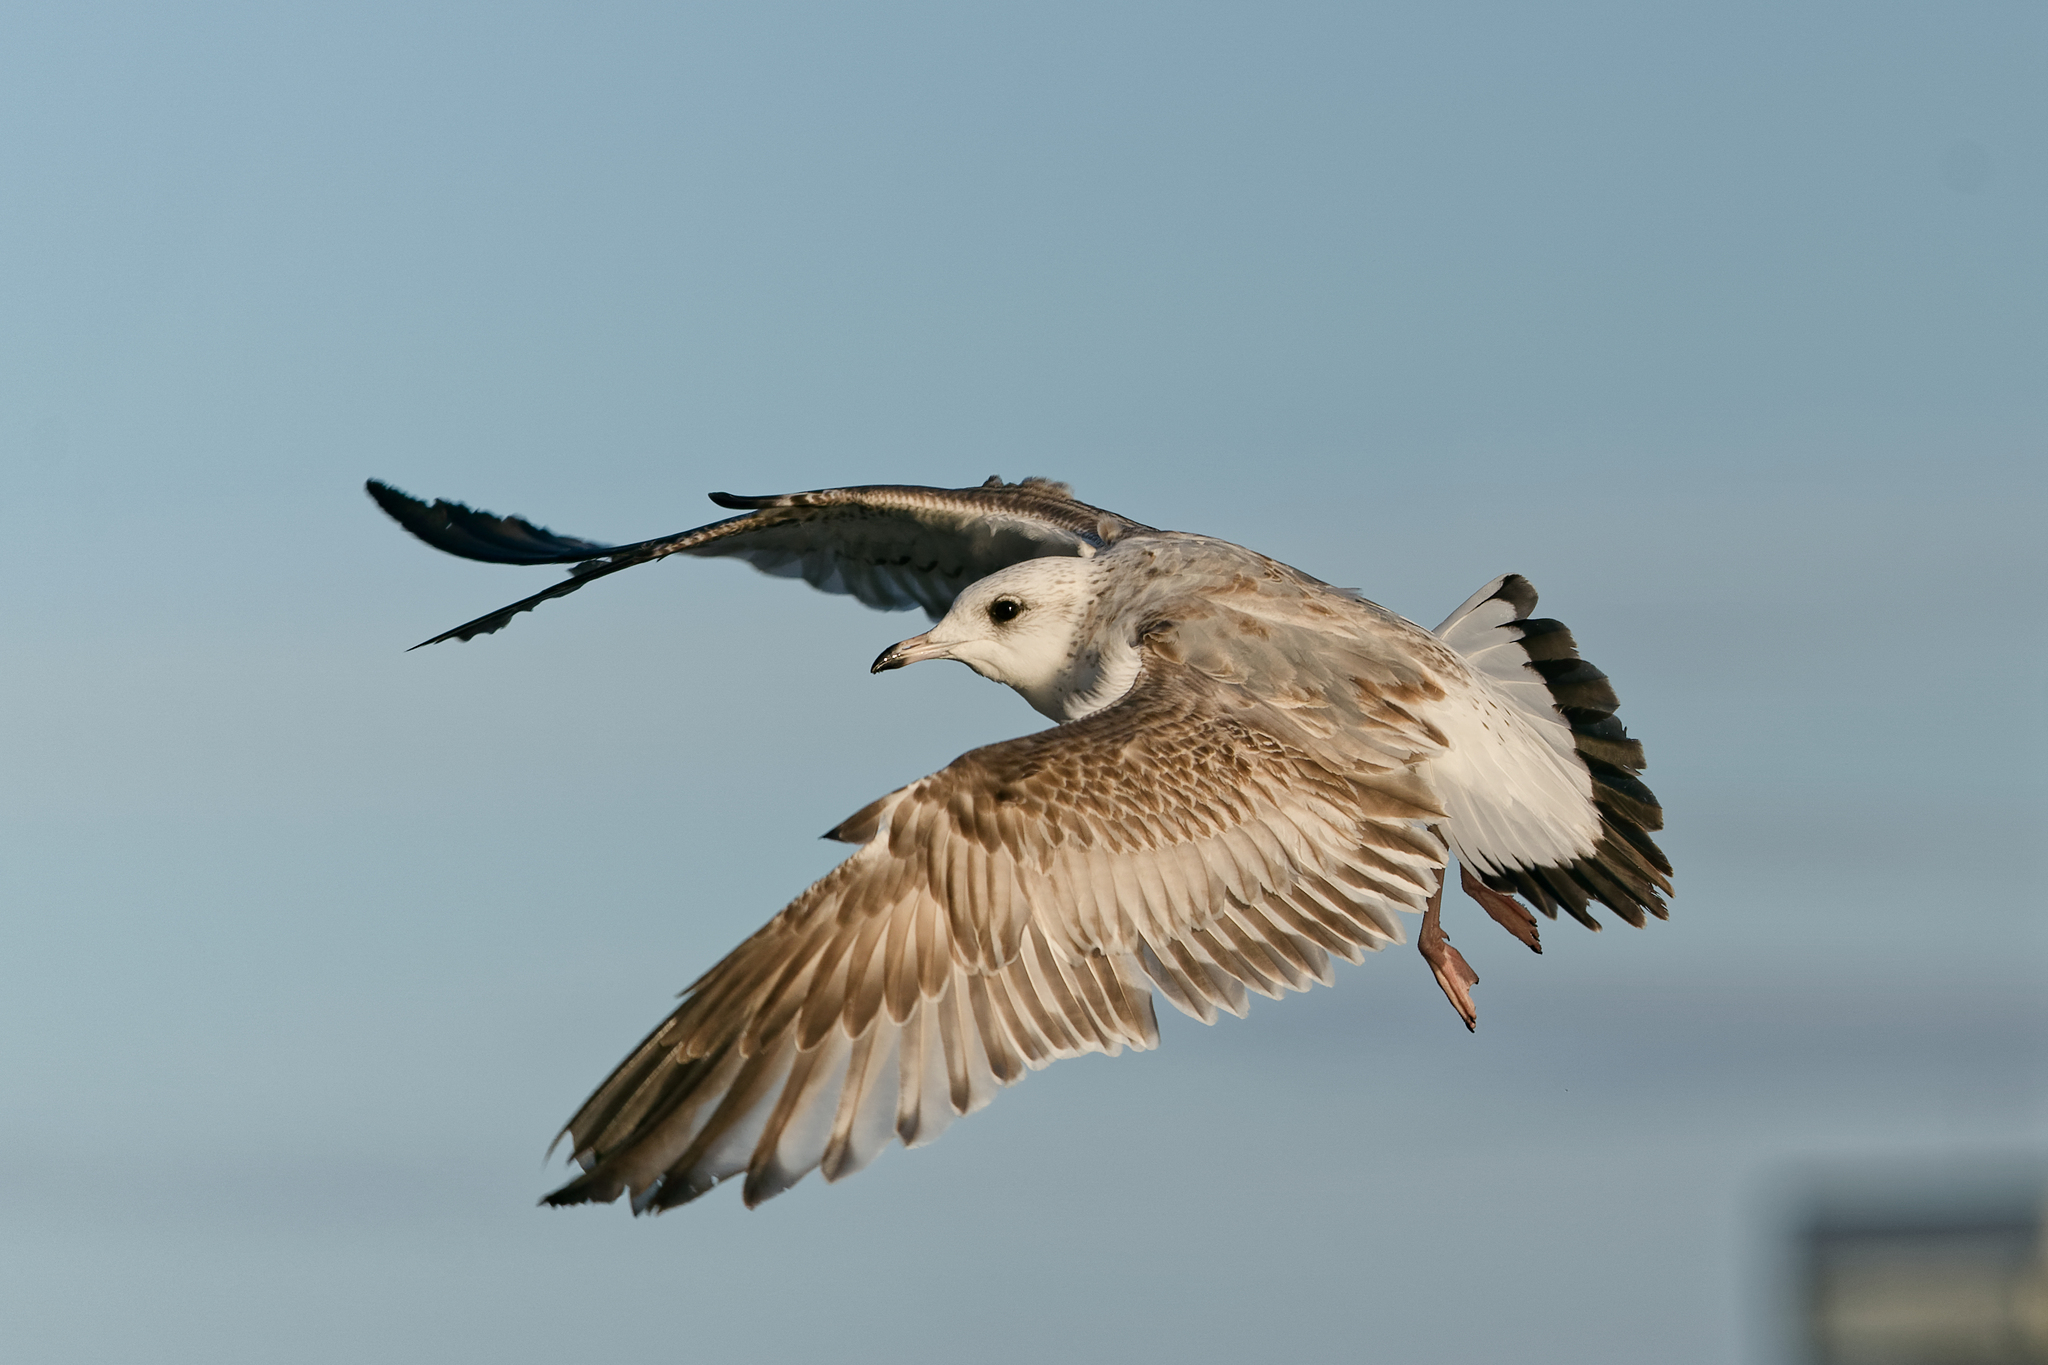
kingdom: Animalia
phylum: Chordata
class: Aves
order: Charadriiformes
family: Laridae
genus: Larus
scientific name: Larus canus
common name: Mew gull
